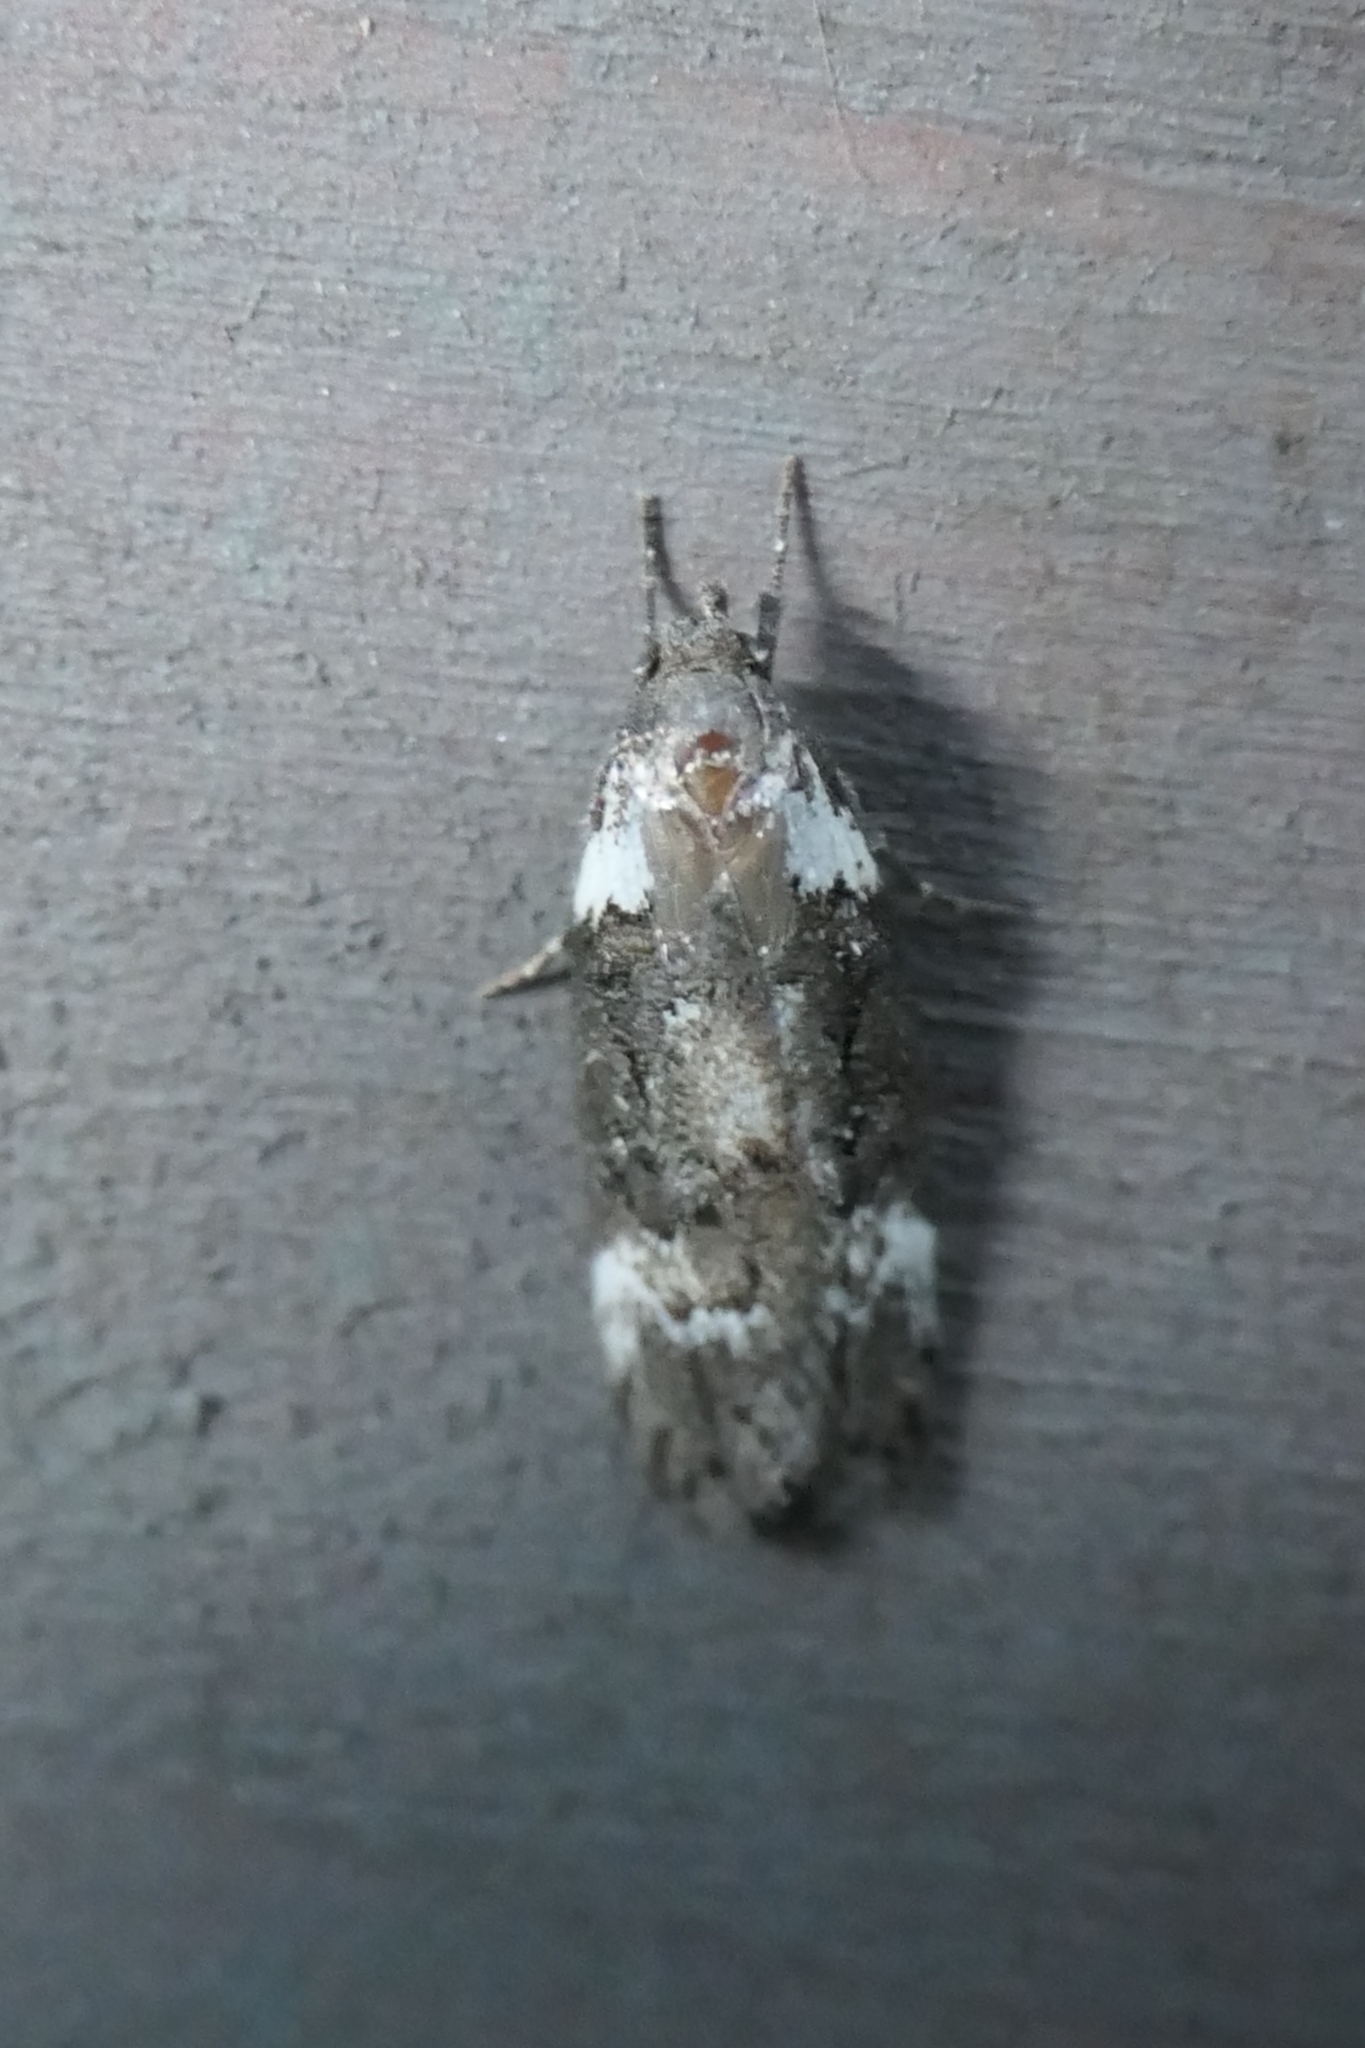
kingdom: Animalia
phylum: Arthropoda
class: Insecta
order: Lepidoptera
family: Oecophoridae
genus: Trachypepla
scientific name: Trachypepla conspicuella
